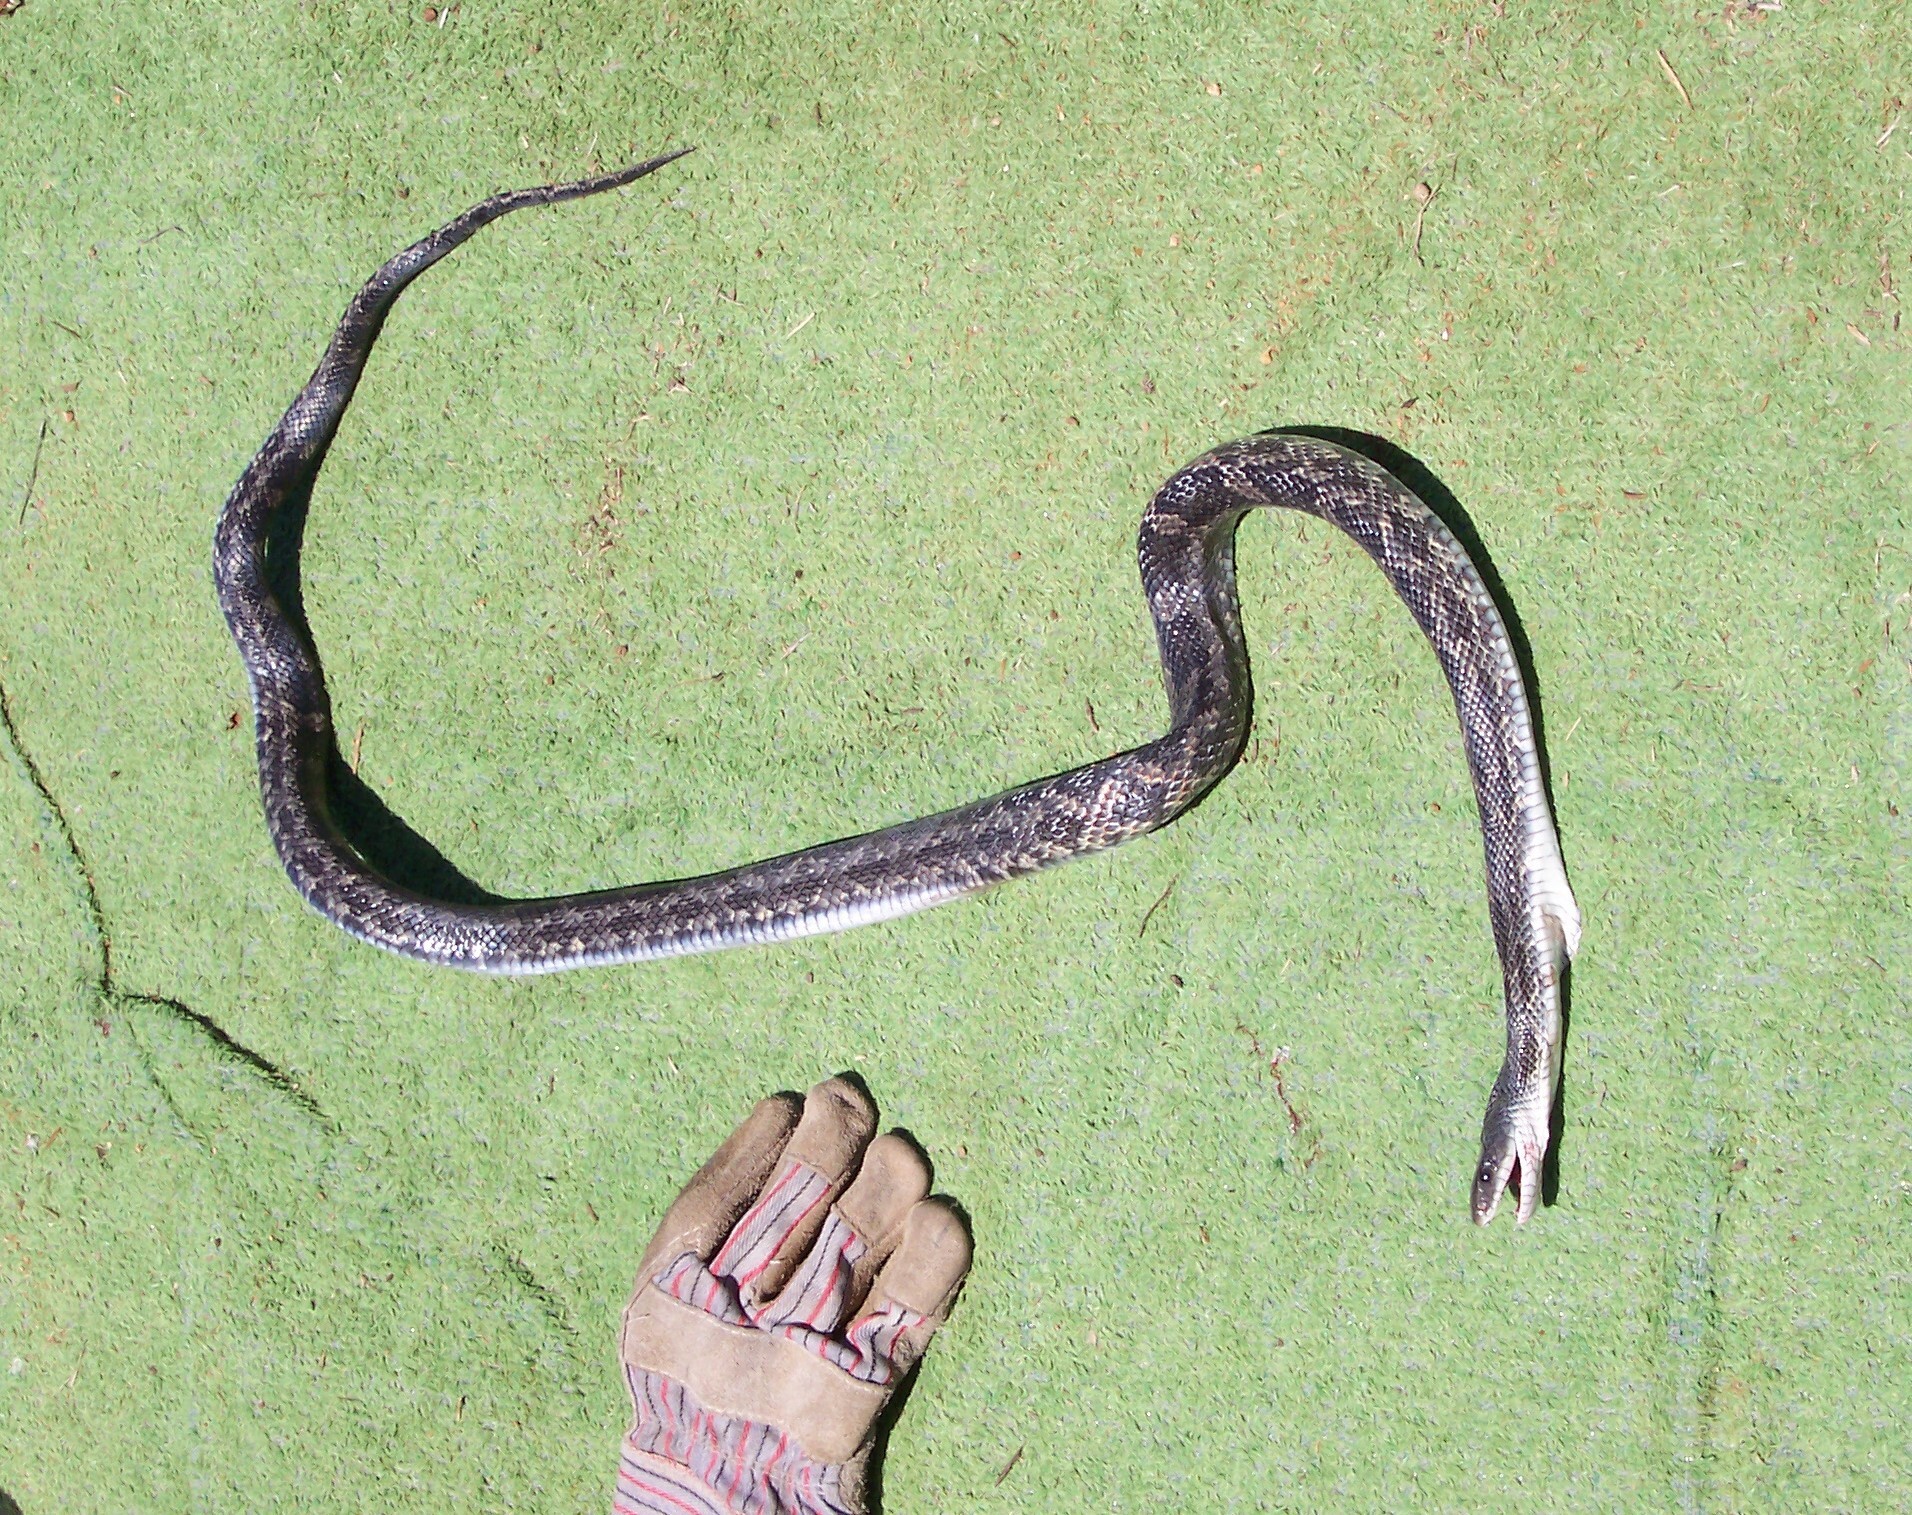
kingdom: Animalia
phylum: Chordata
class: Squamata
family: Colubridae
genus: Pantherophis
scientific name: Pantherophis obsoletus
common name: Black rat snake
